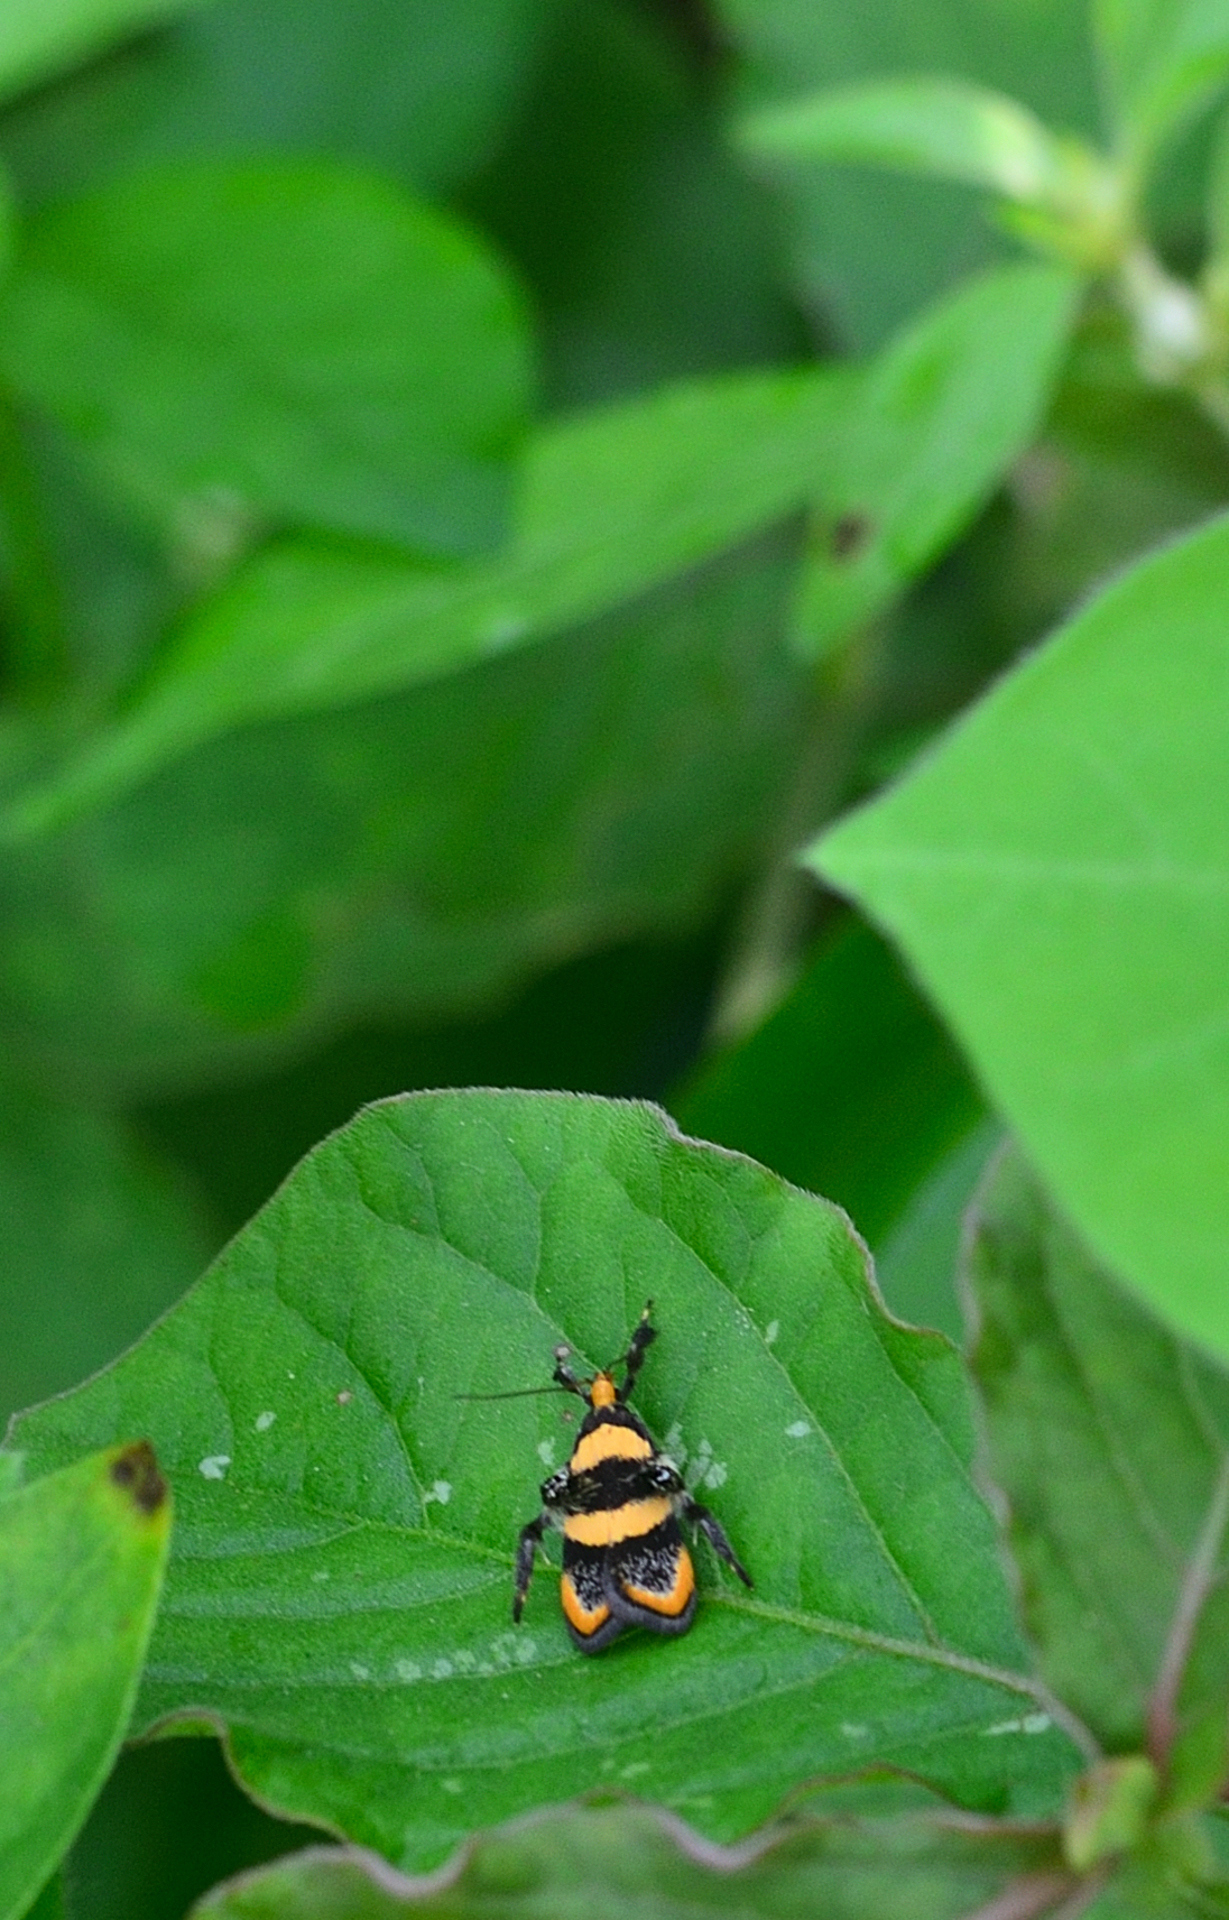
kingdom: Animalia
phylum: Arthropoda
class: Insecta
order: Lepidoptera
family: Lecithoceridae
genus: Tisis
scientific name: Tisis
